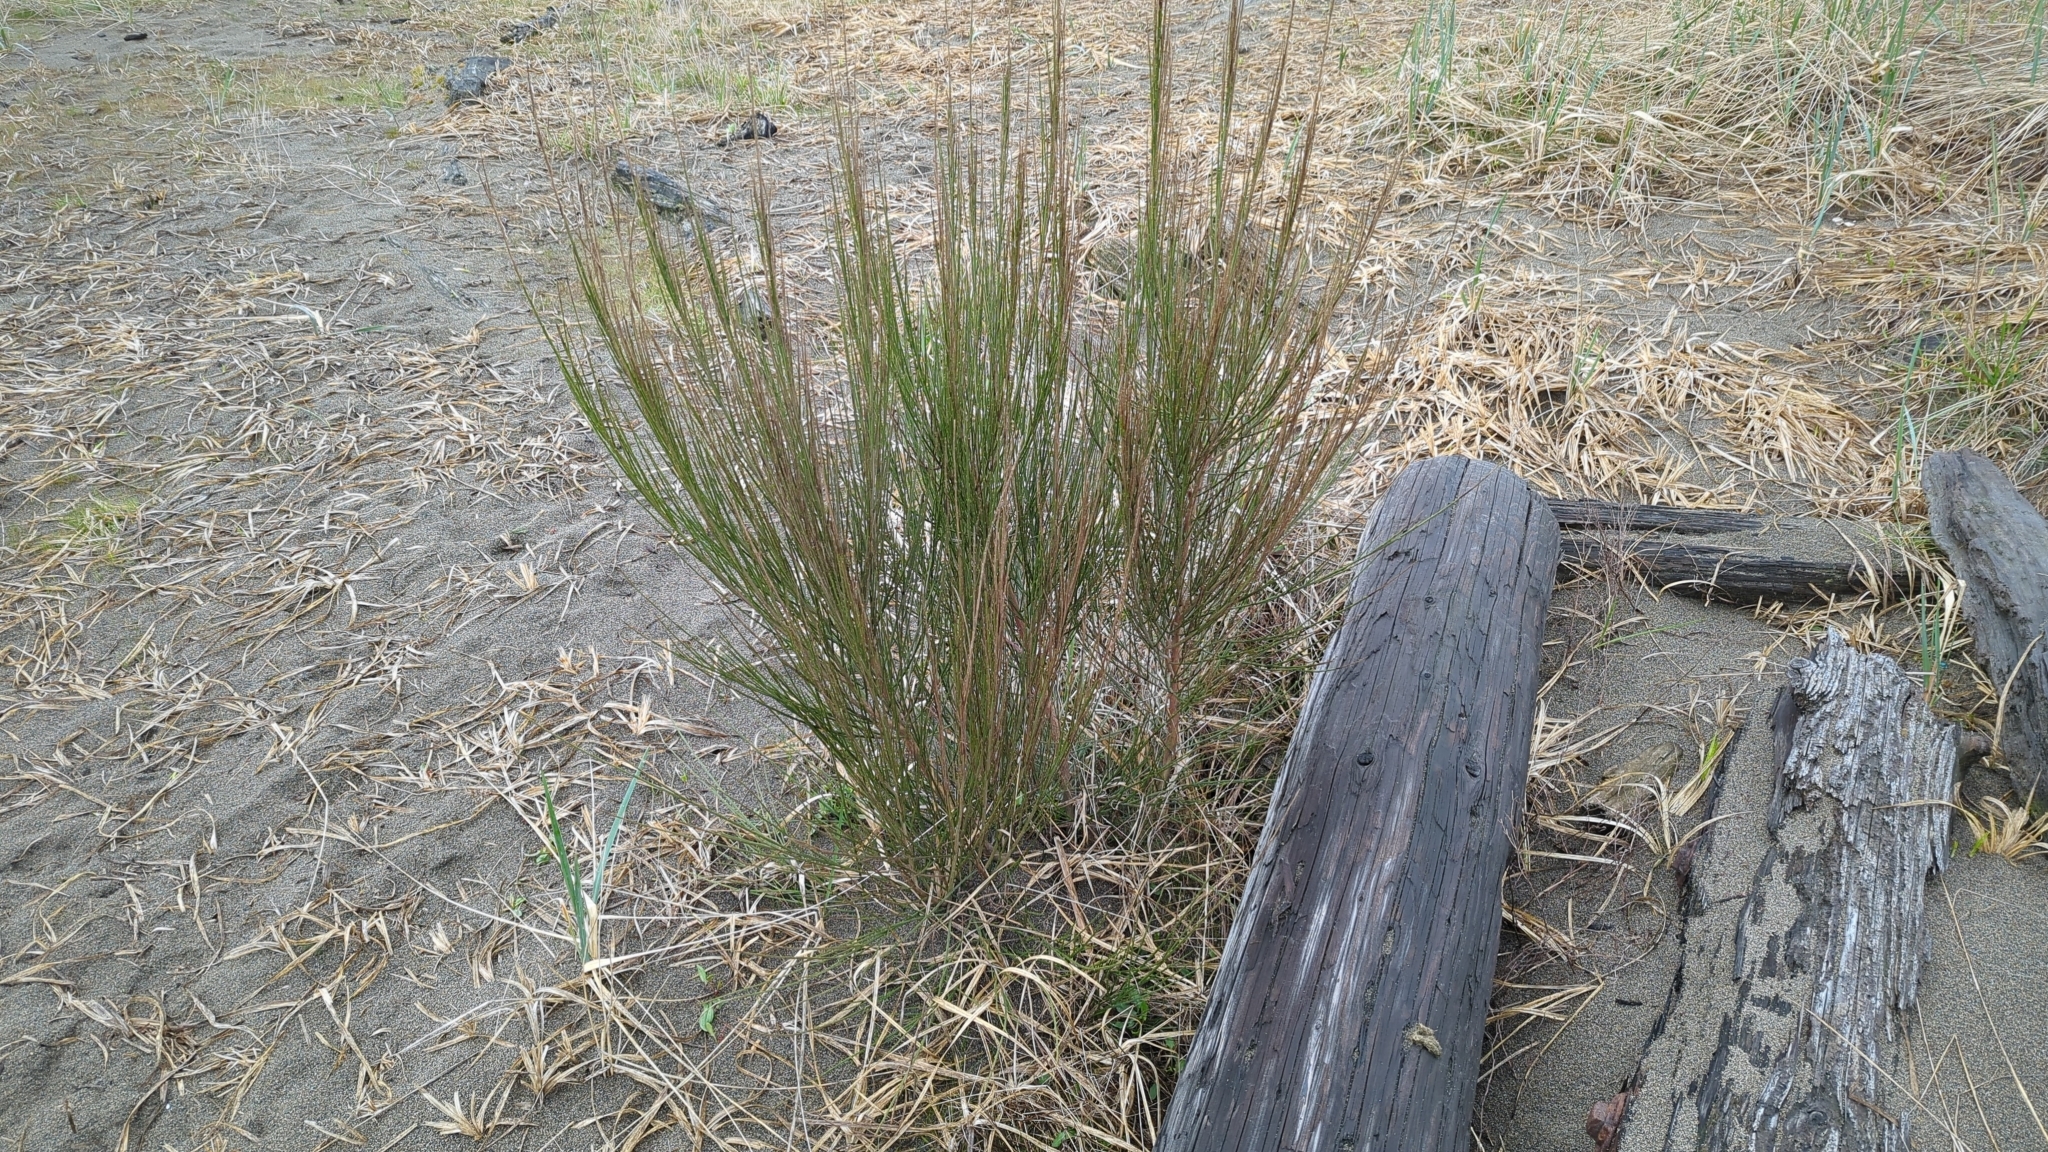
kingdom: Plantae
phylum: Tracheophyta
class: Magnoliopsida
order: Fabales
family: Fabaceae
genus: Cytisus
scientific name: Cytisus scoparius
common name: Scotch broom
